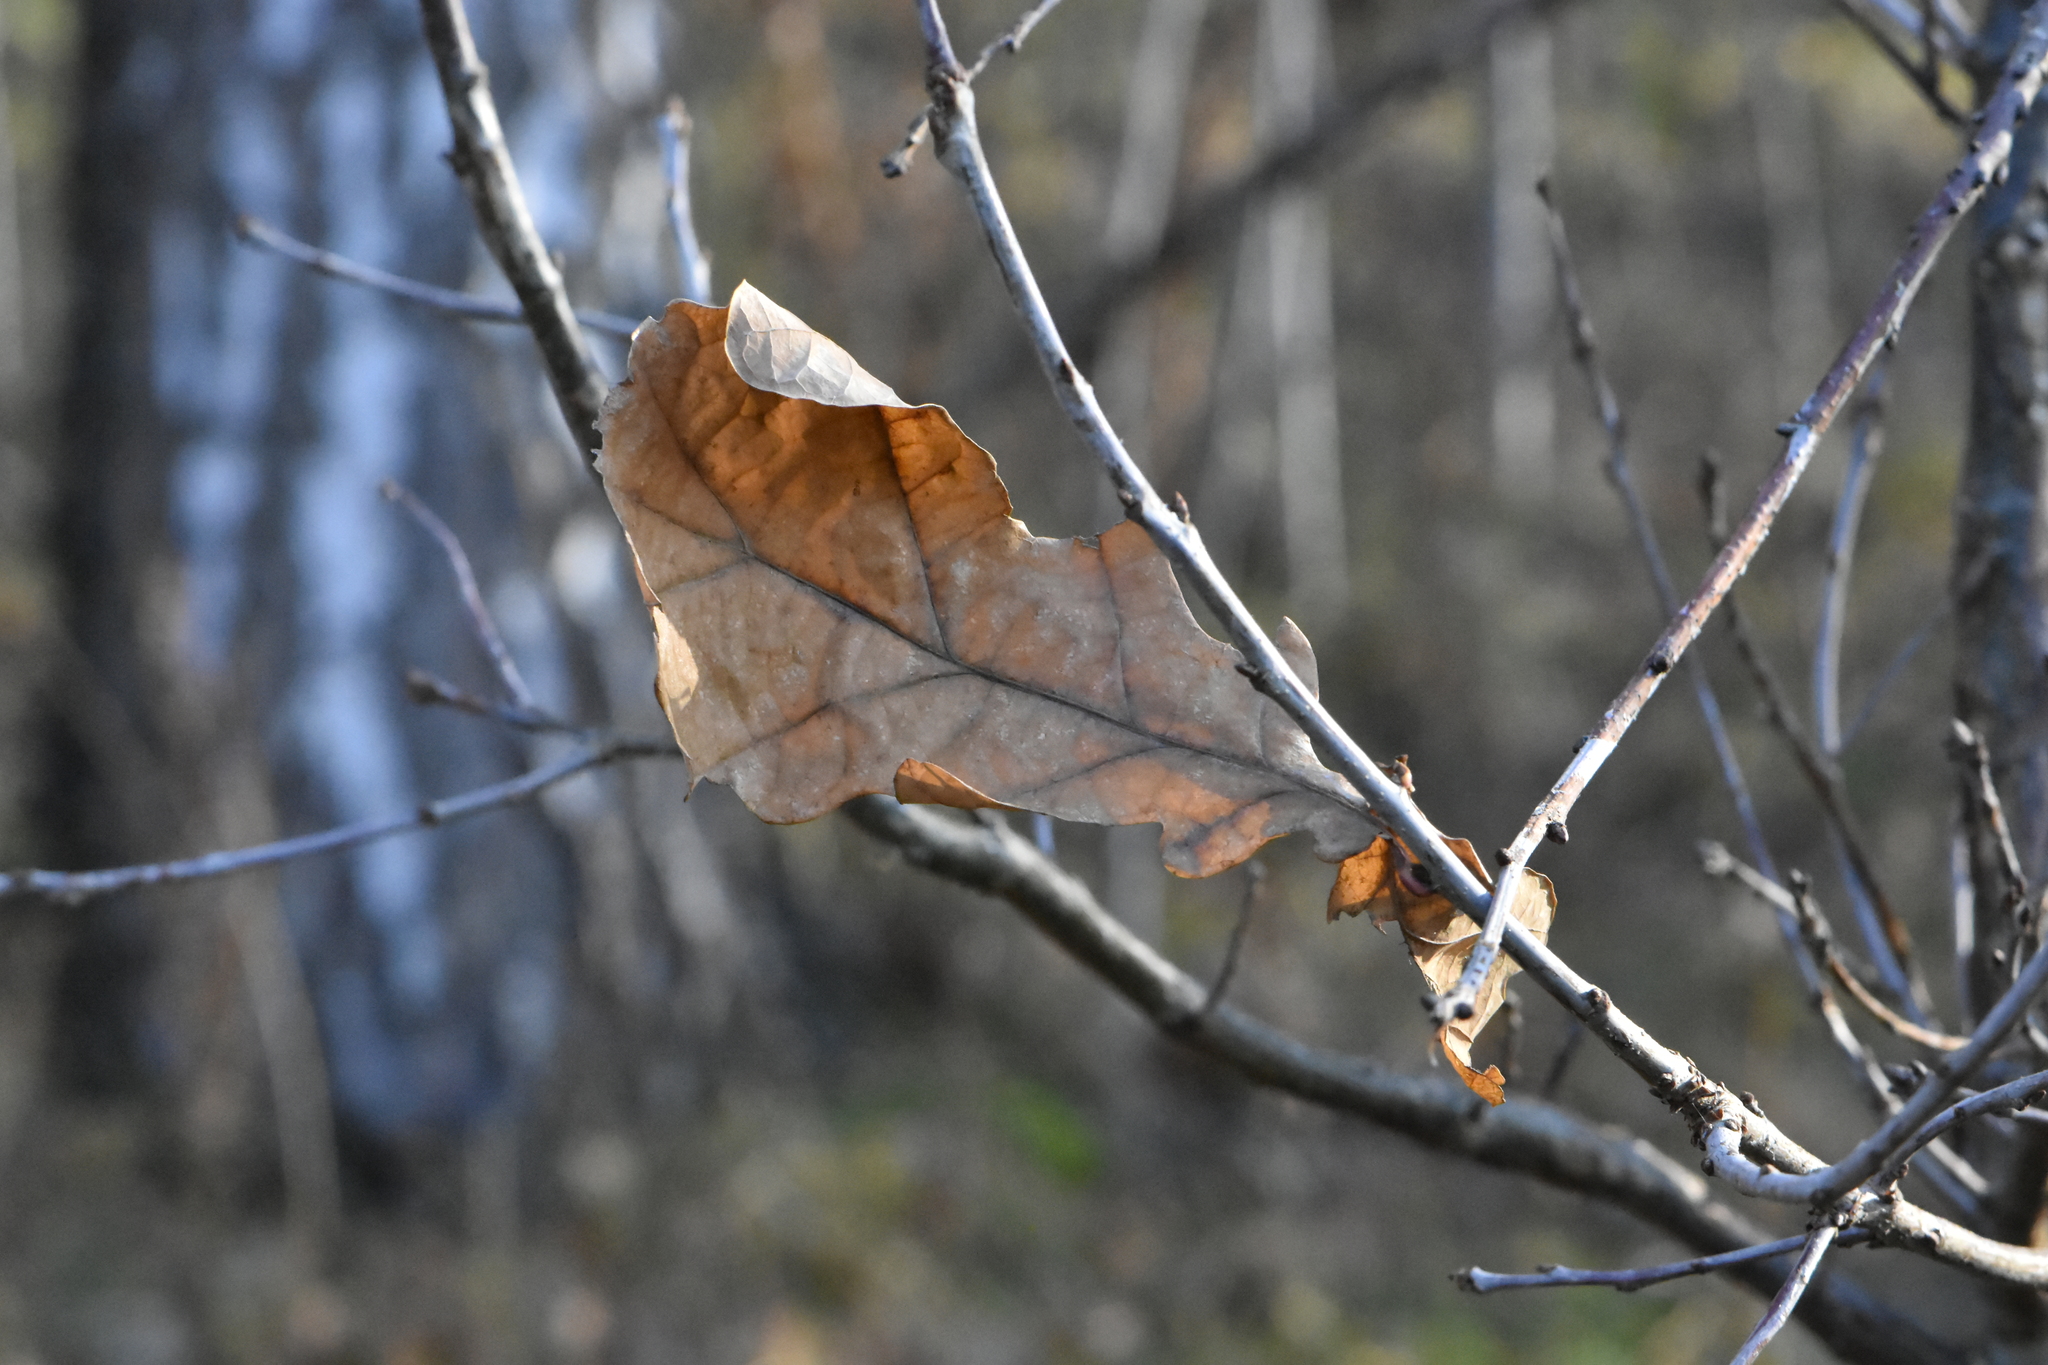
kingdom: Plantae
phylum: Tracheophyta
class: Magnoliopsida
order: Fagales
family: Fagaceae
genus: Quercus
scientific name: Quercus robur
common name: Pedunculate oak
